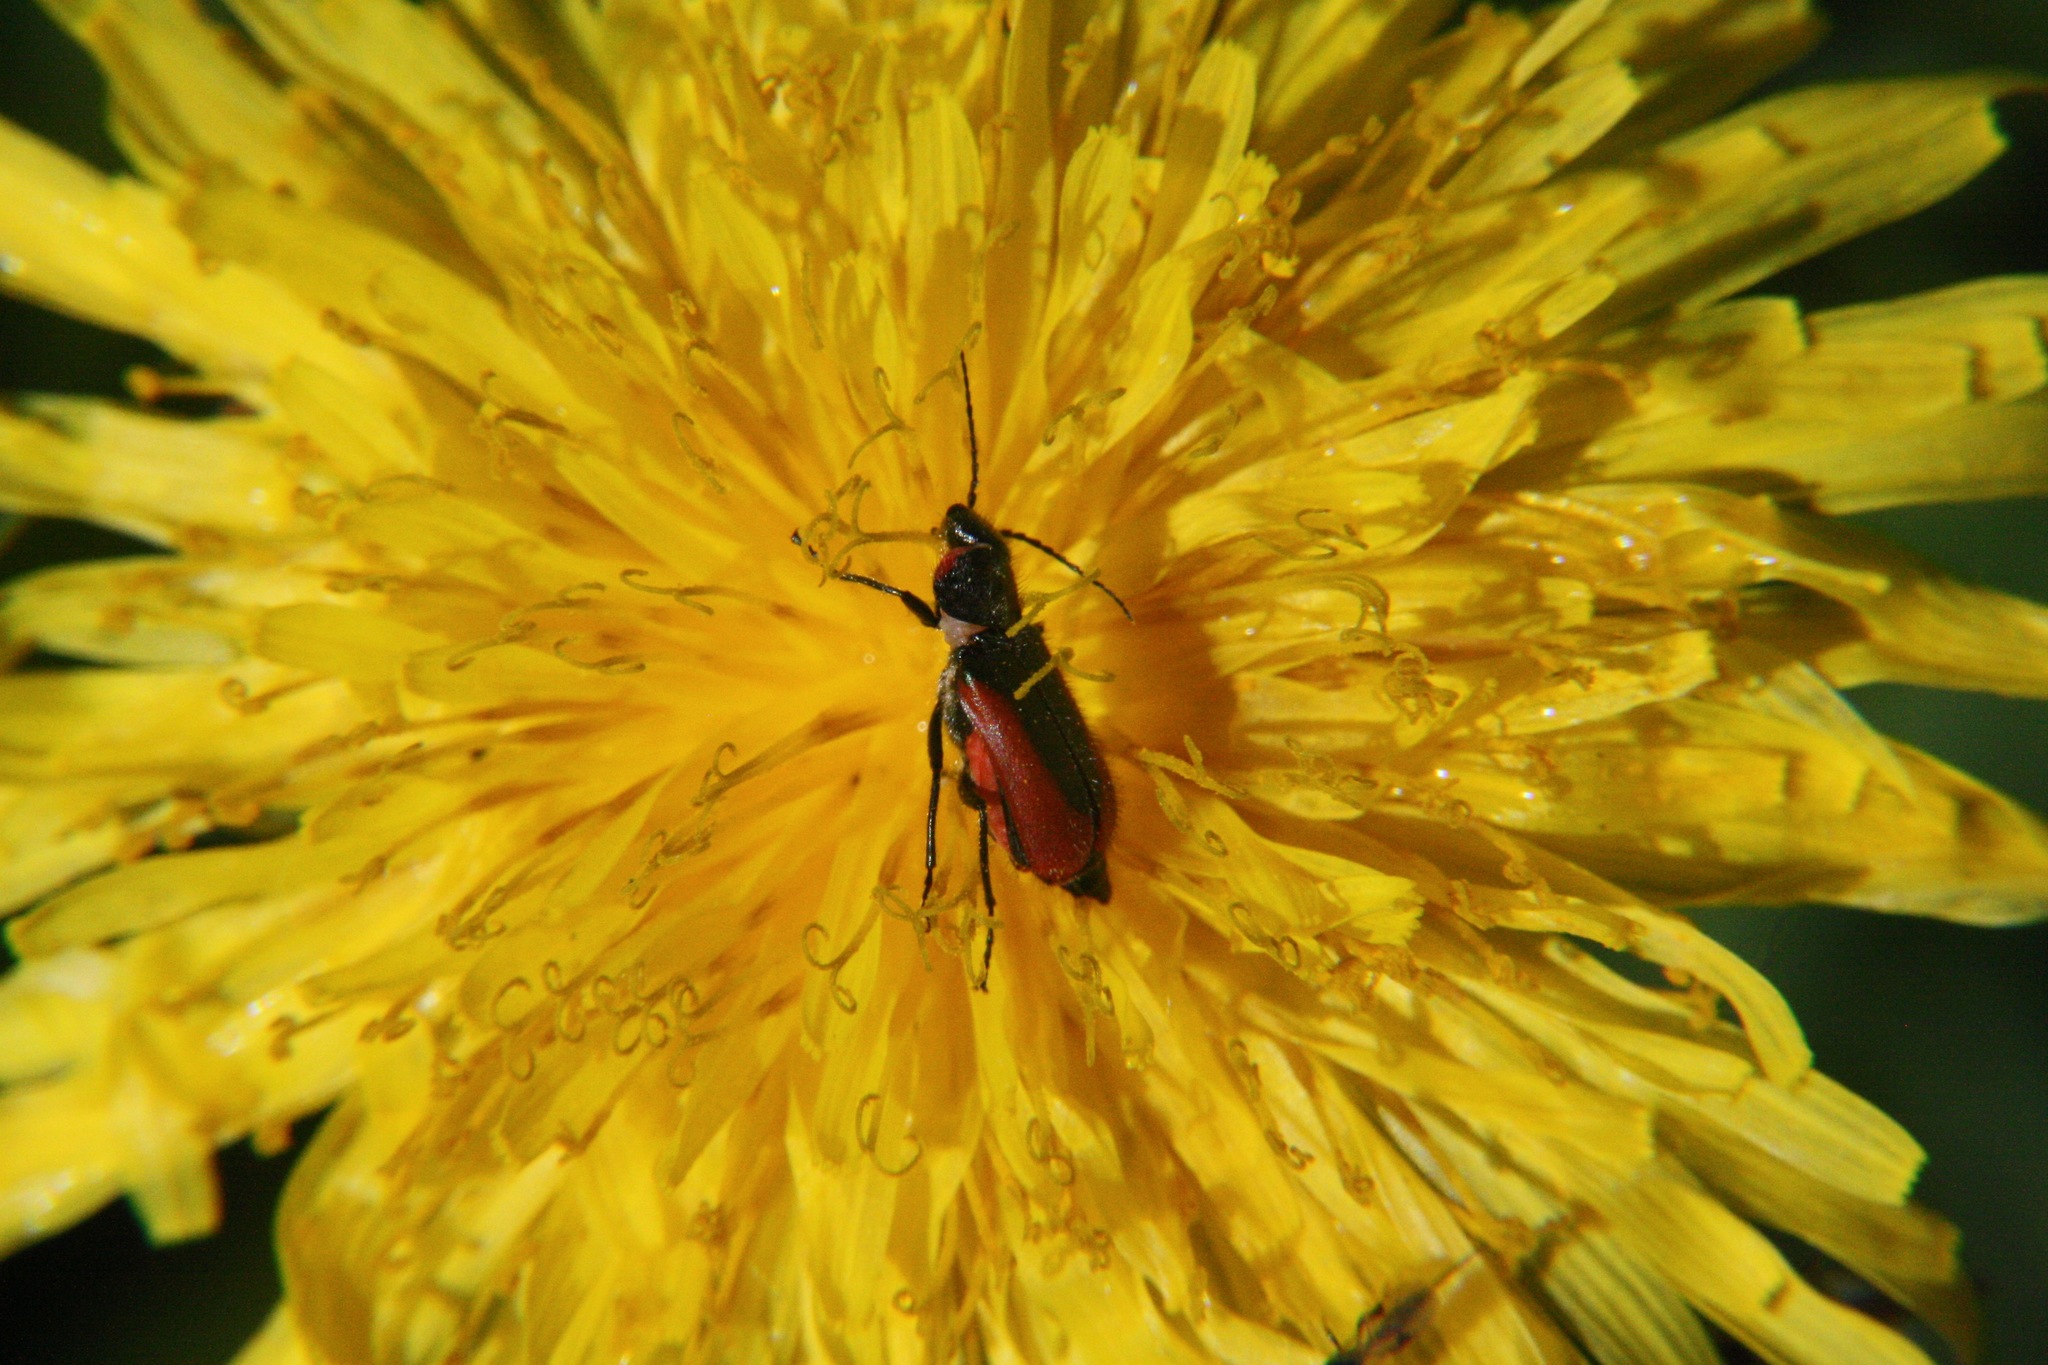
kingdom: Animalia
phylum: Arthropoda
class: Insecta
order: Coleoptera
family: Melyridae
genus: Malachius
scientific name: Malachius aeneus
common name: Scarlet malachite beetle
